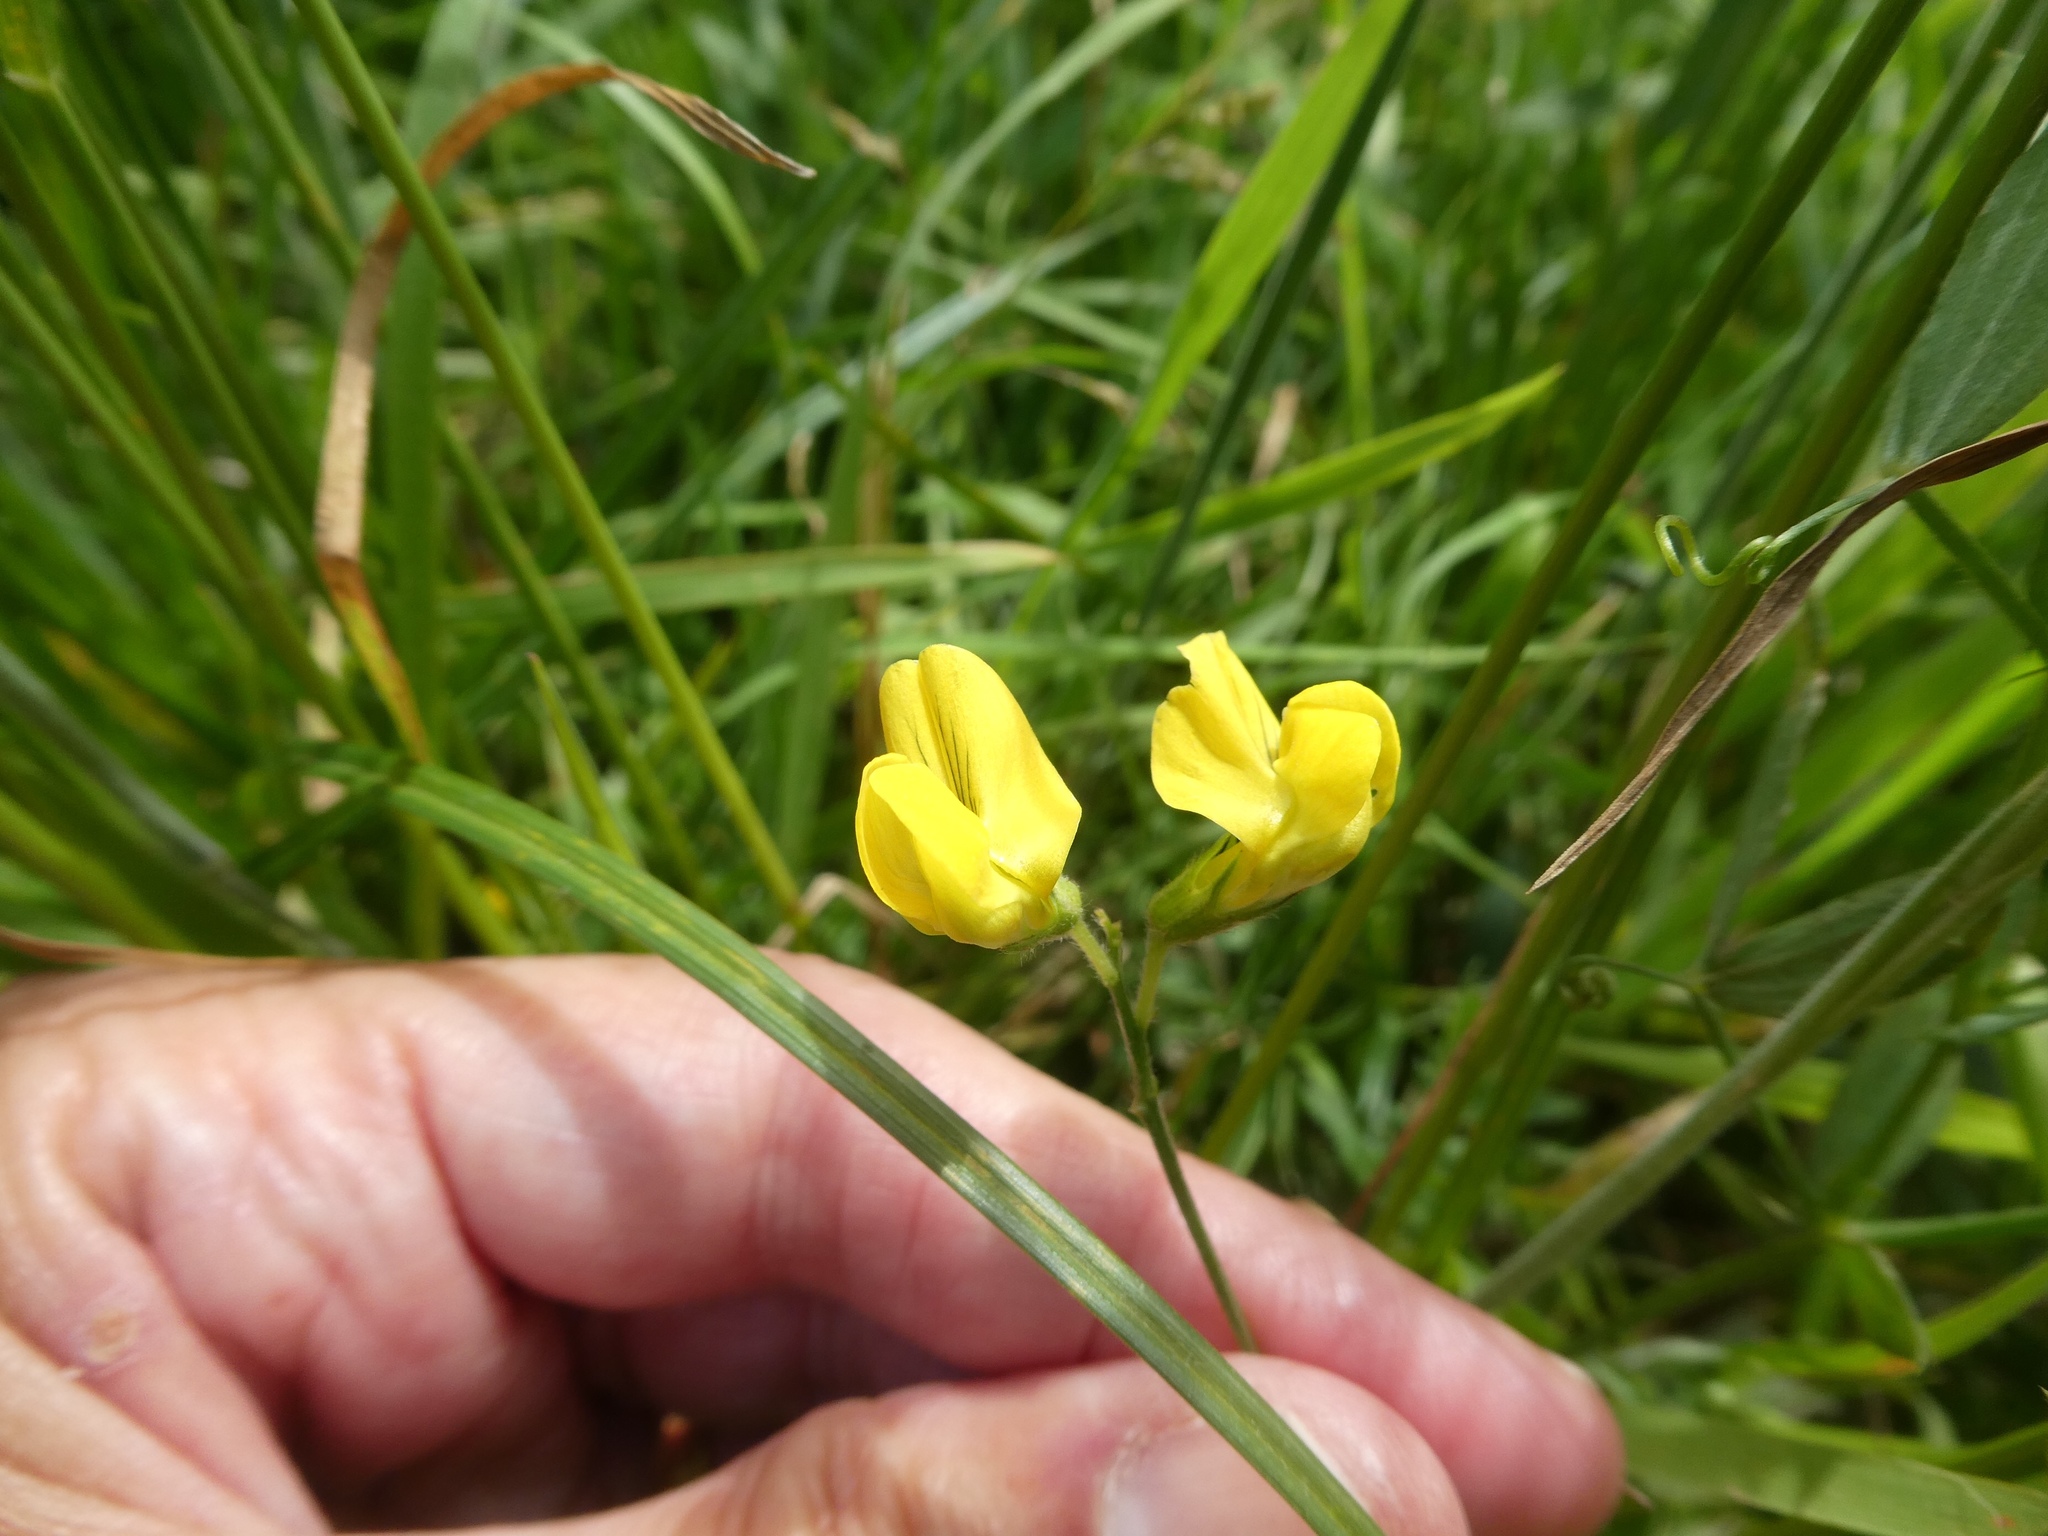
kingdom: Plantae
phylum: Tracheophyta
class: Magnoliopsida
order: Fabales
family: Fabaceae
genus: Lathyrus
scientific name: Lathyrus pratensis
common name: Meadow vetchling
